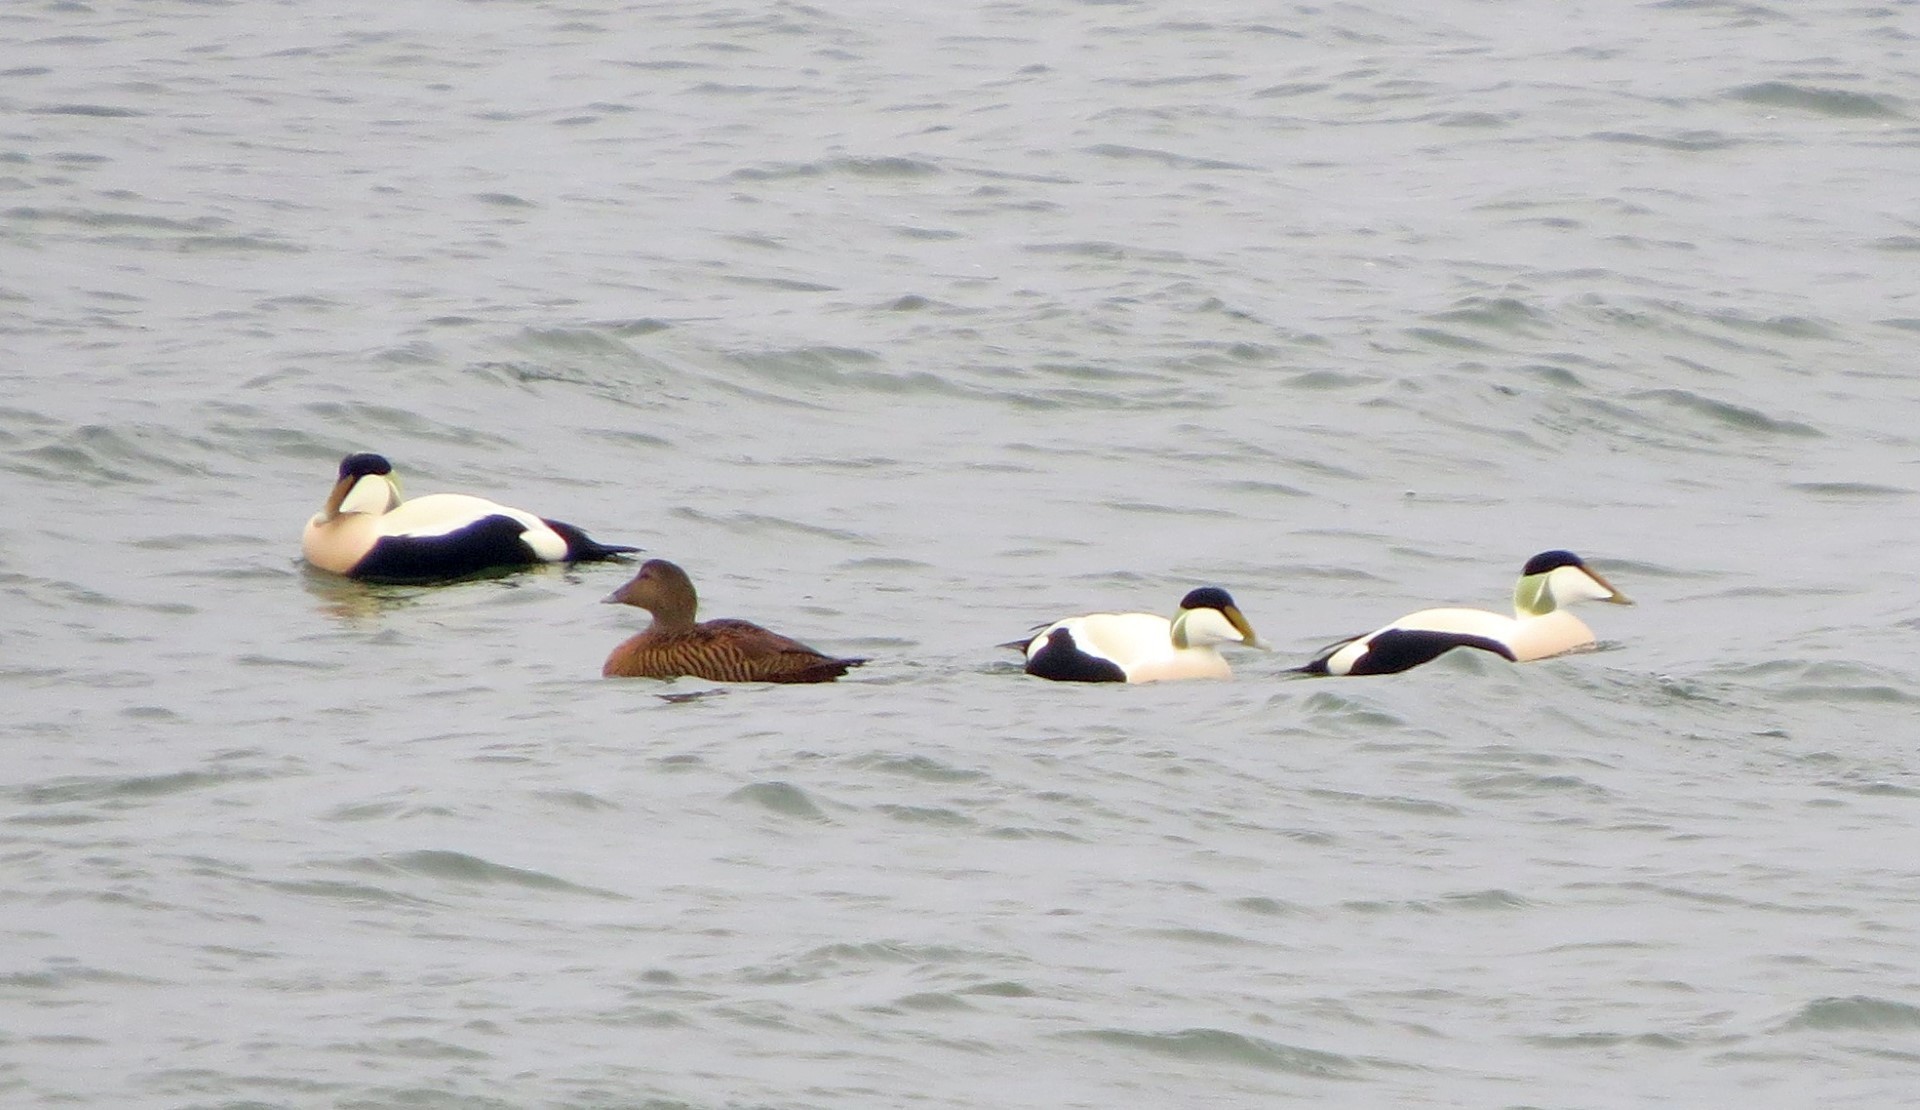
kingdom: Animalia
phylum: Chordata
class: Aves
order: Anseriformes
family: Anatidae
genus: Somateria
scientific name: Somateria mollissima
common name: Common eider
